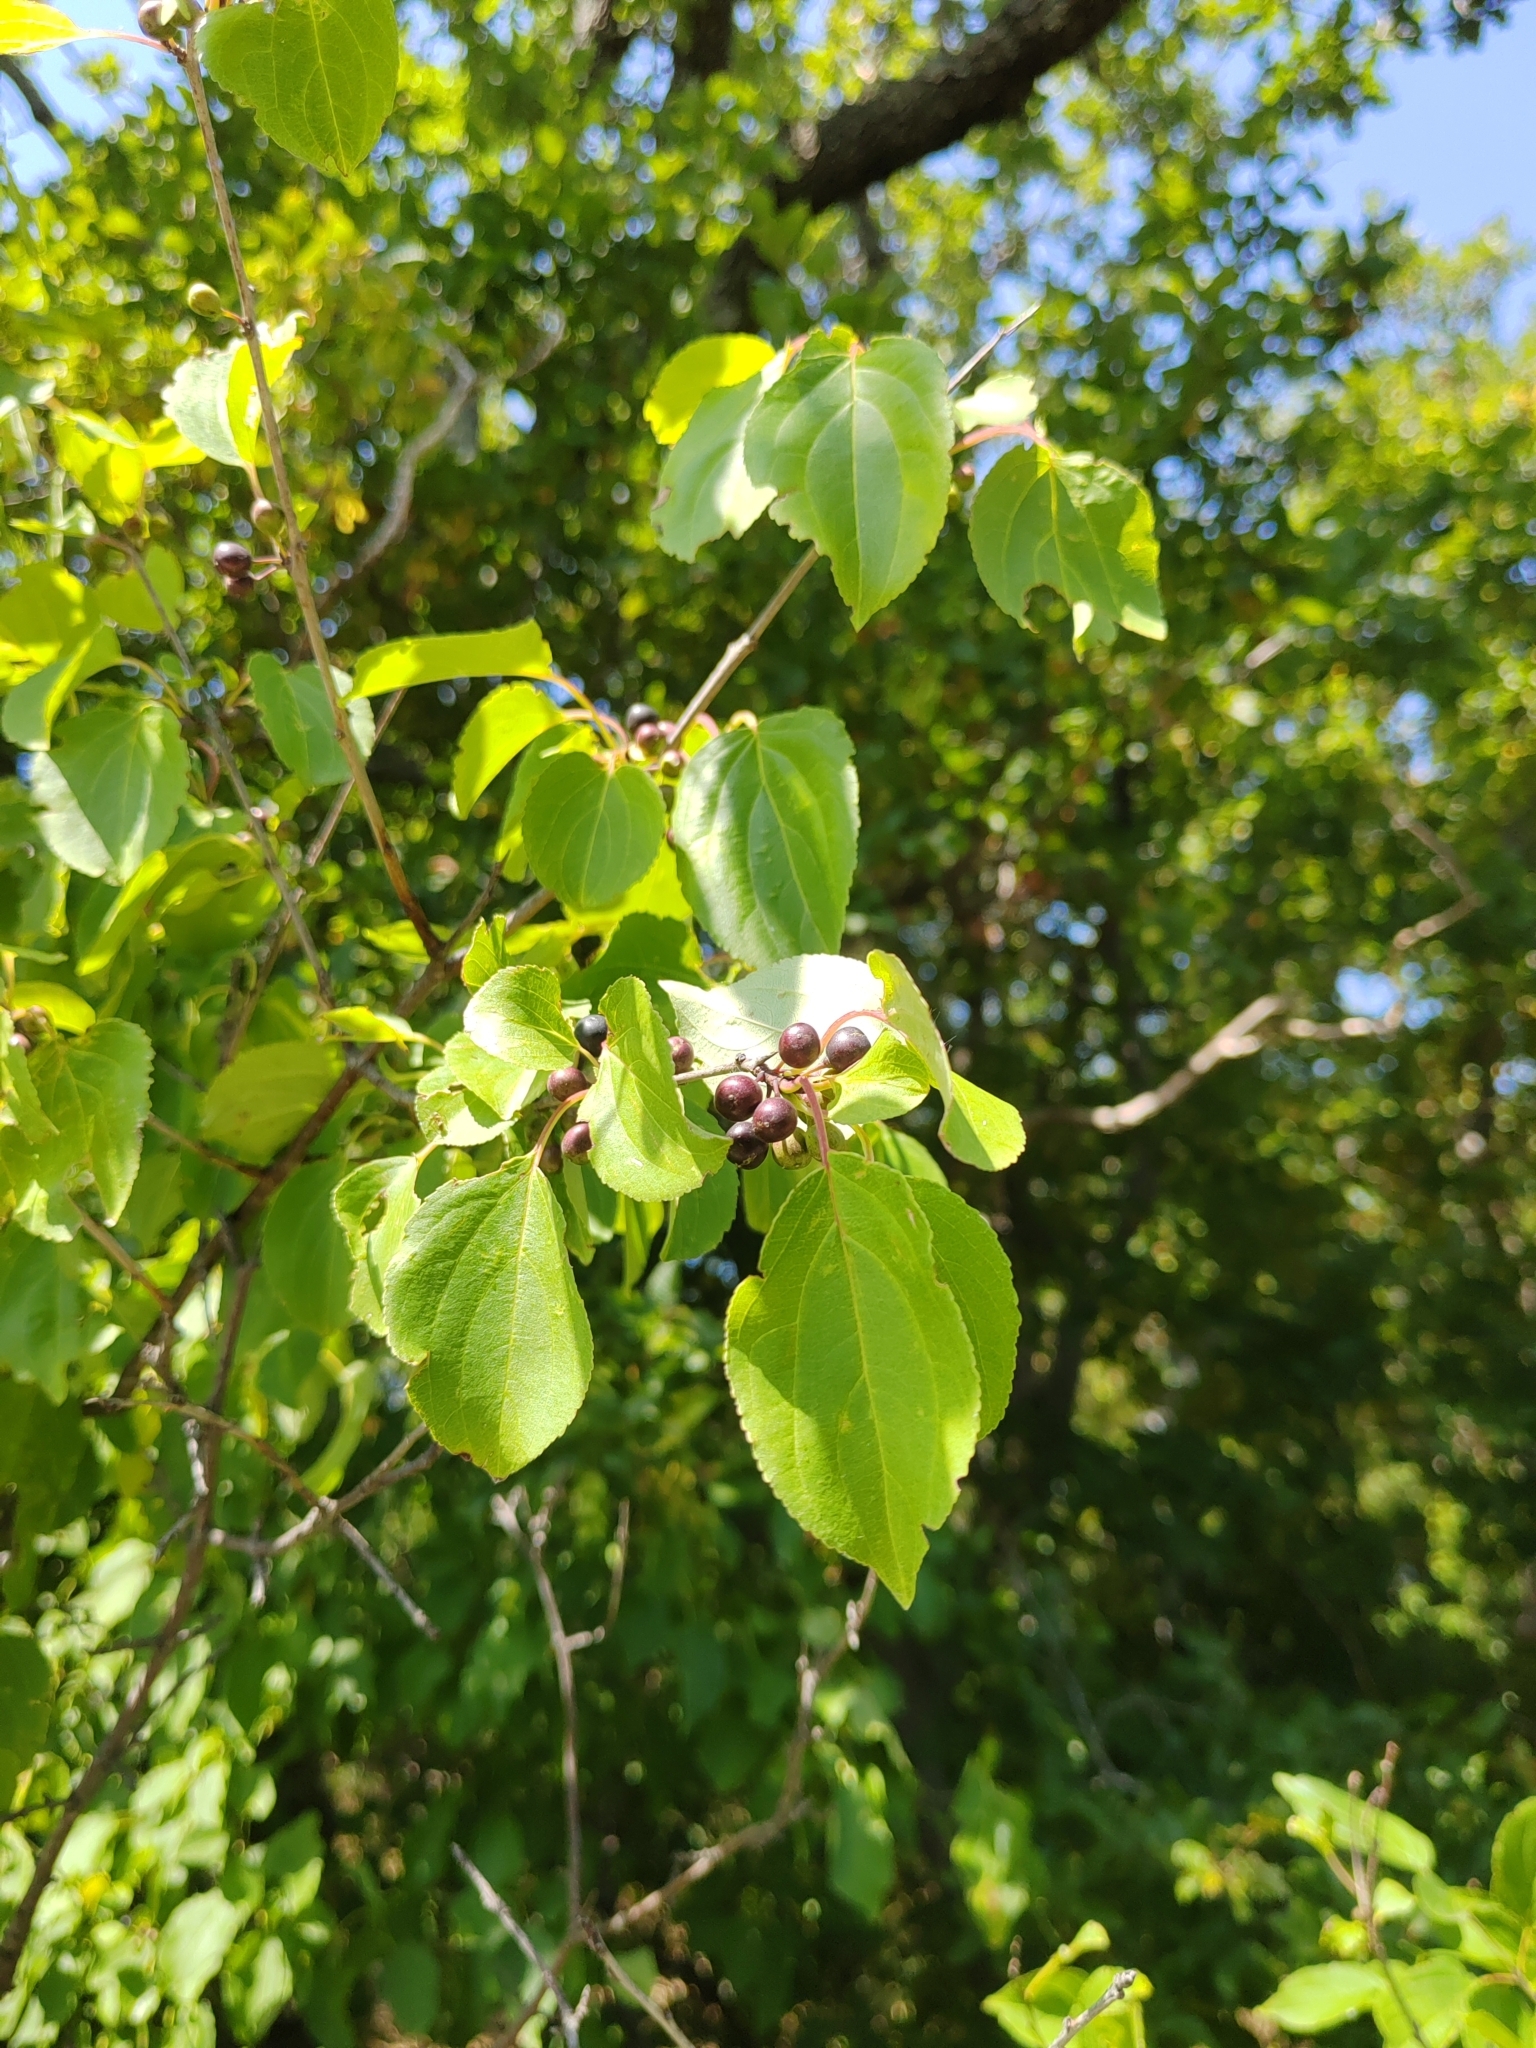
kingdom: Plantae
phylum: Tracheophyta
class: Magnoliopsida
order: Rosales
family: Rhamnaceae
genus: Rhamnus
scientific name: Rhamnus cathartica
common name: Common buckthorn
